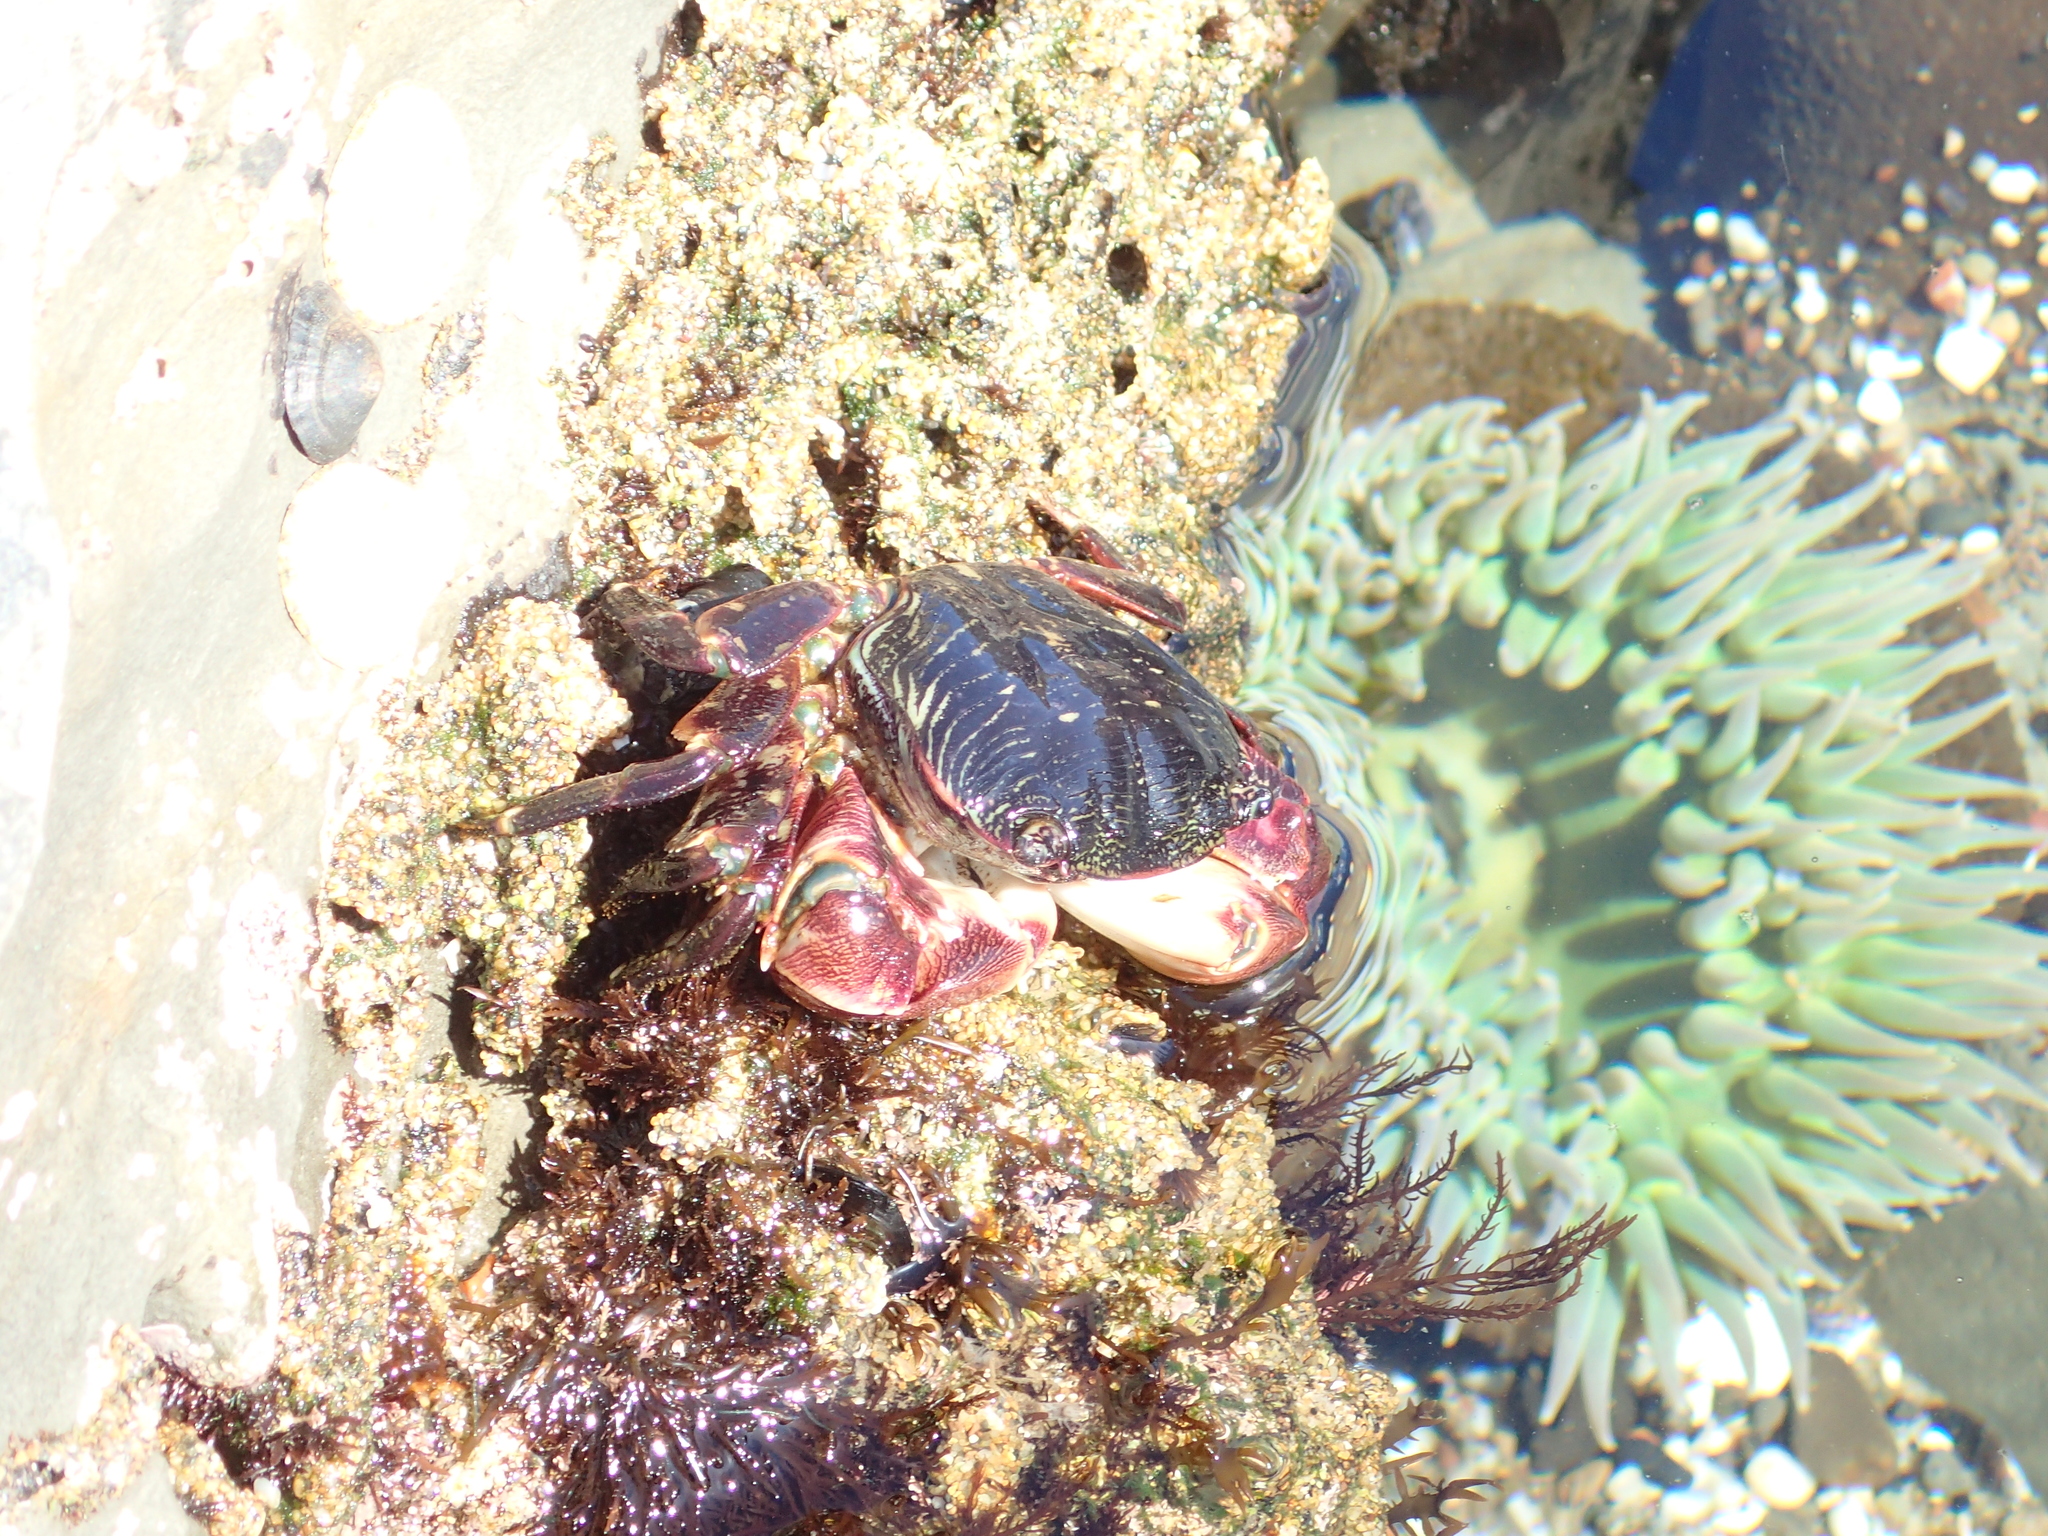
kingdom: Animalia
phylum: Arthropoda
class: Malacostraca
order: Decapoda
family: Grapsidae
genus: Pachygrapsus
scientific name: Pachygrapsus crassipes
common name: Striped shore crab
